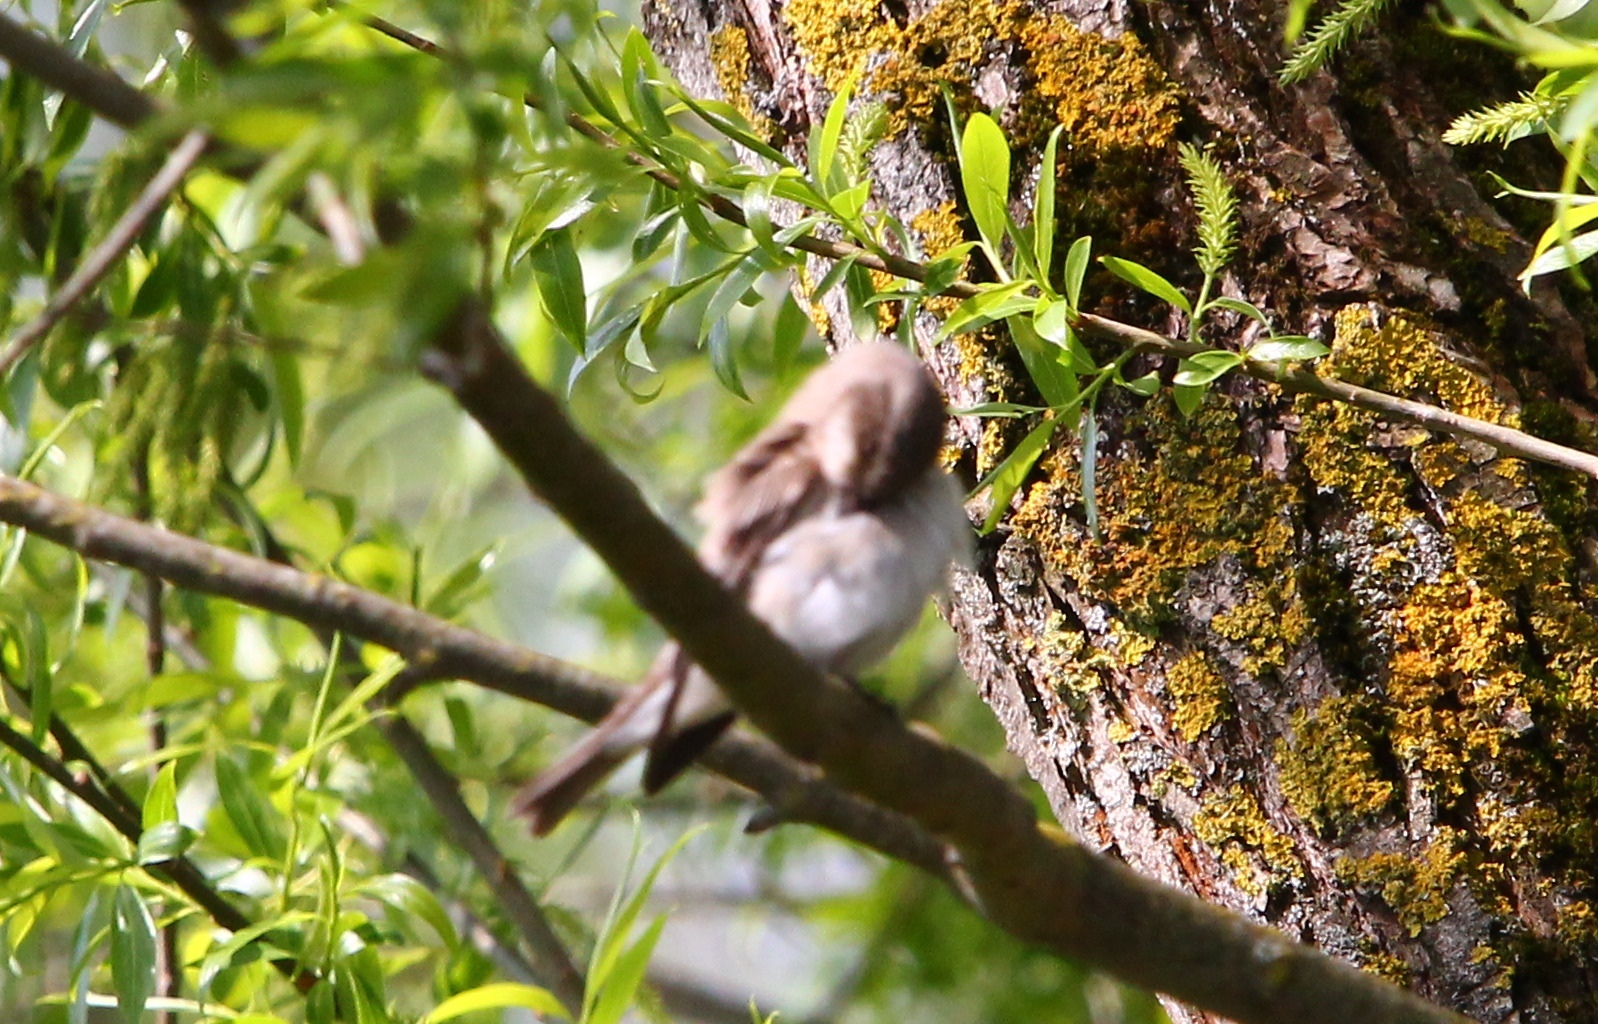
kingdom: Animalia
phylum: Chordata
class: Aves
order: Passeriformes
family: Muscicapidae
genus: Muscicapa
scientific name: Muscicapa striata
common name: Spotted flycatcher
